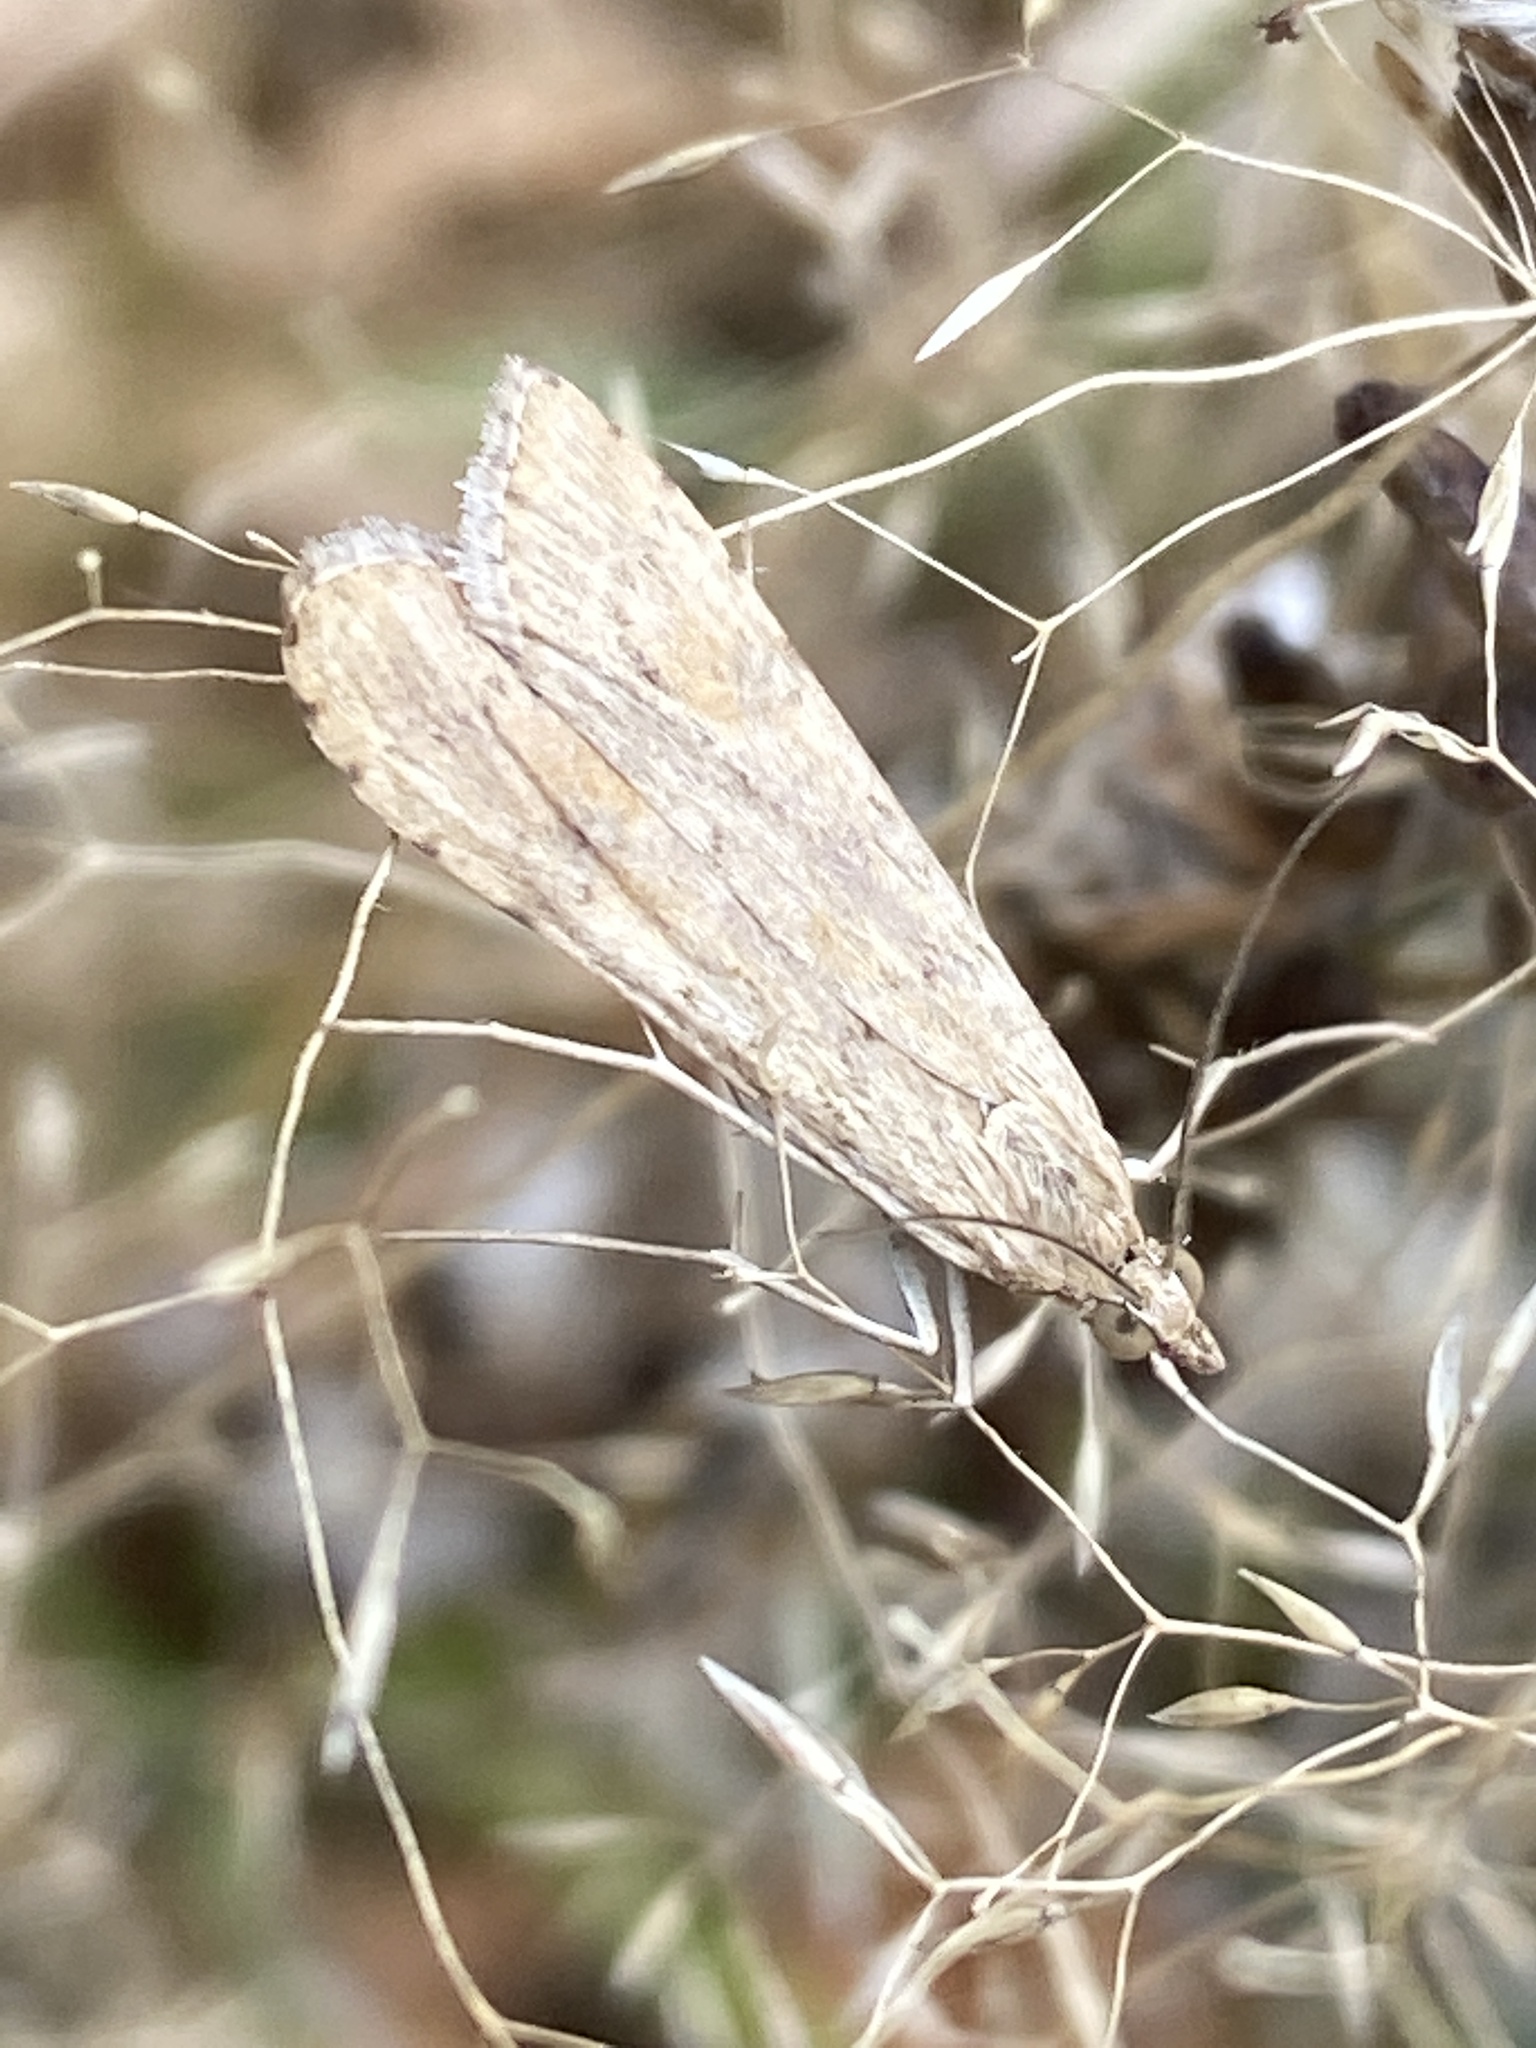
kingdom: Animalia
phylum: Arthropoda
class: Insecta
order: Lepidoptera
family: Crambidae
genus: Nomophila
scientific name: Nomophila noctuella
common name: Rush veneer
